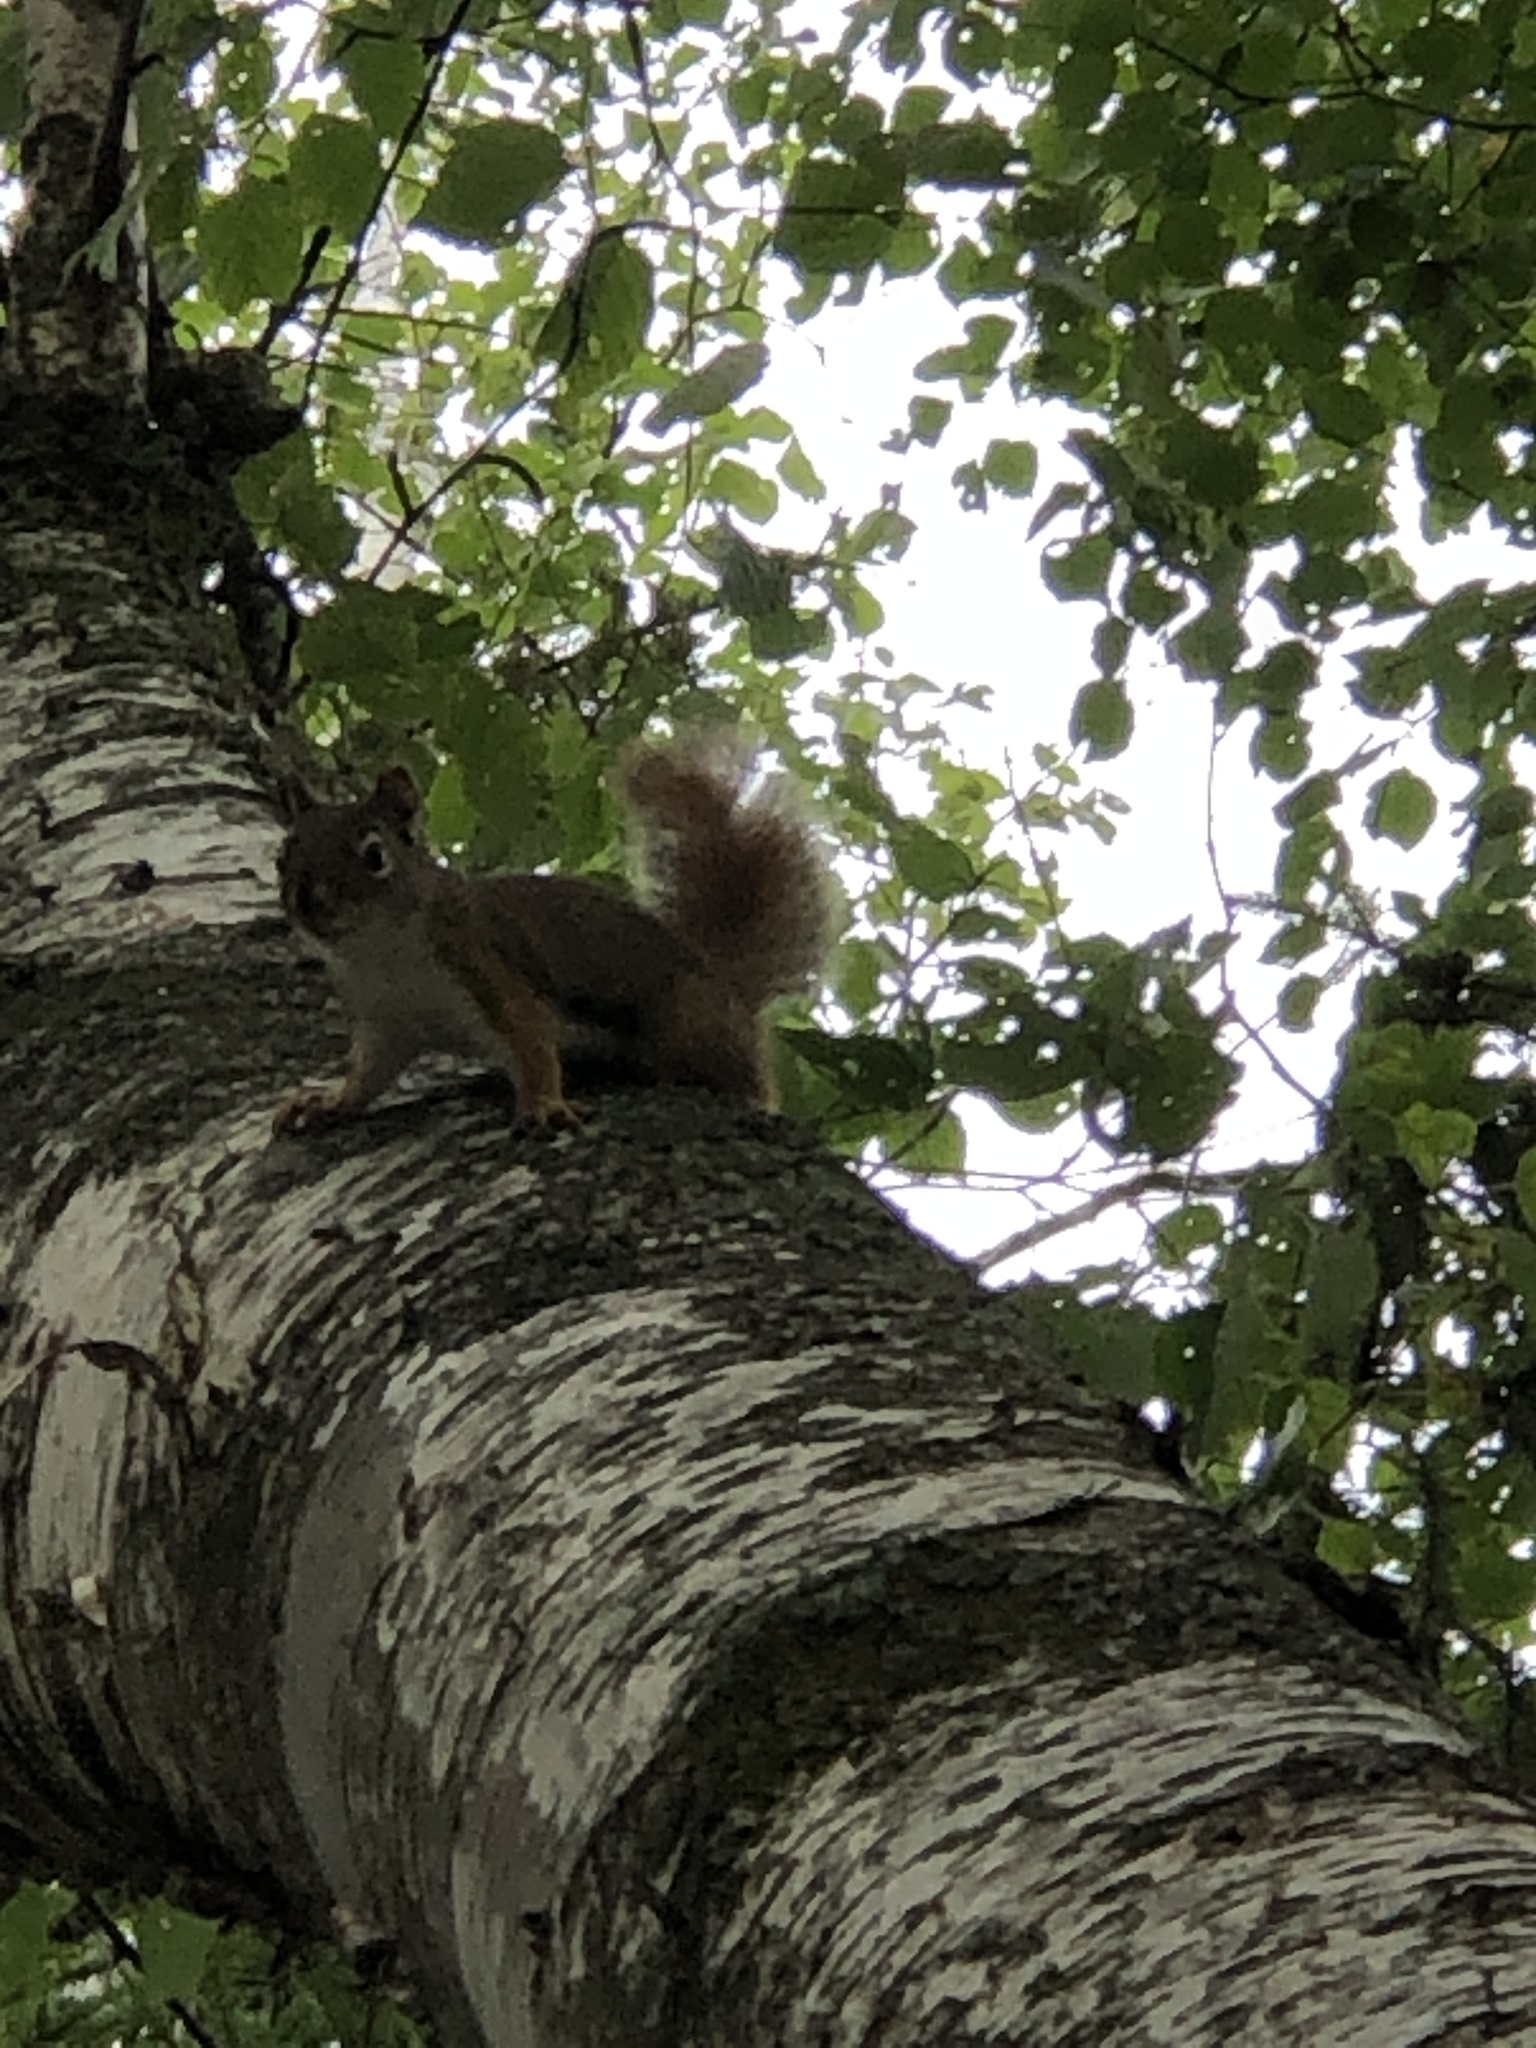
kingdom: Animalia
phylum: Chordata
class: Mammalia
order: Rodentia
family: Sciuridae
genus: Tamiasciurus
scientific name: Tamiasciurus hudsonicus
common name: Red squirrel
